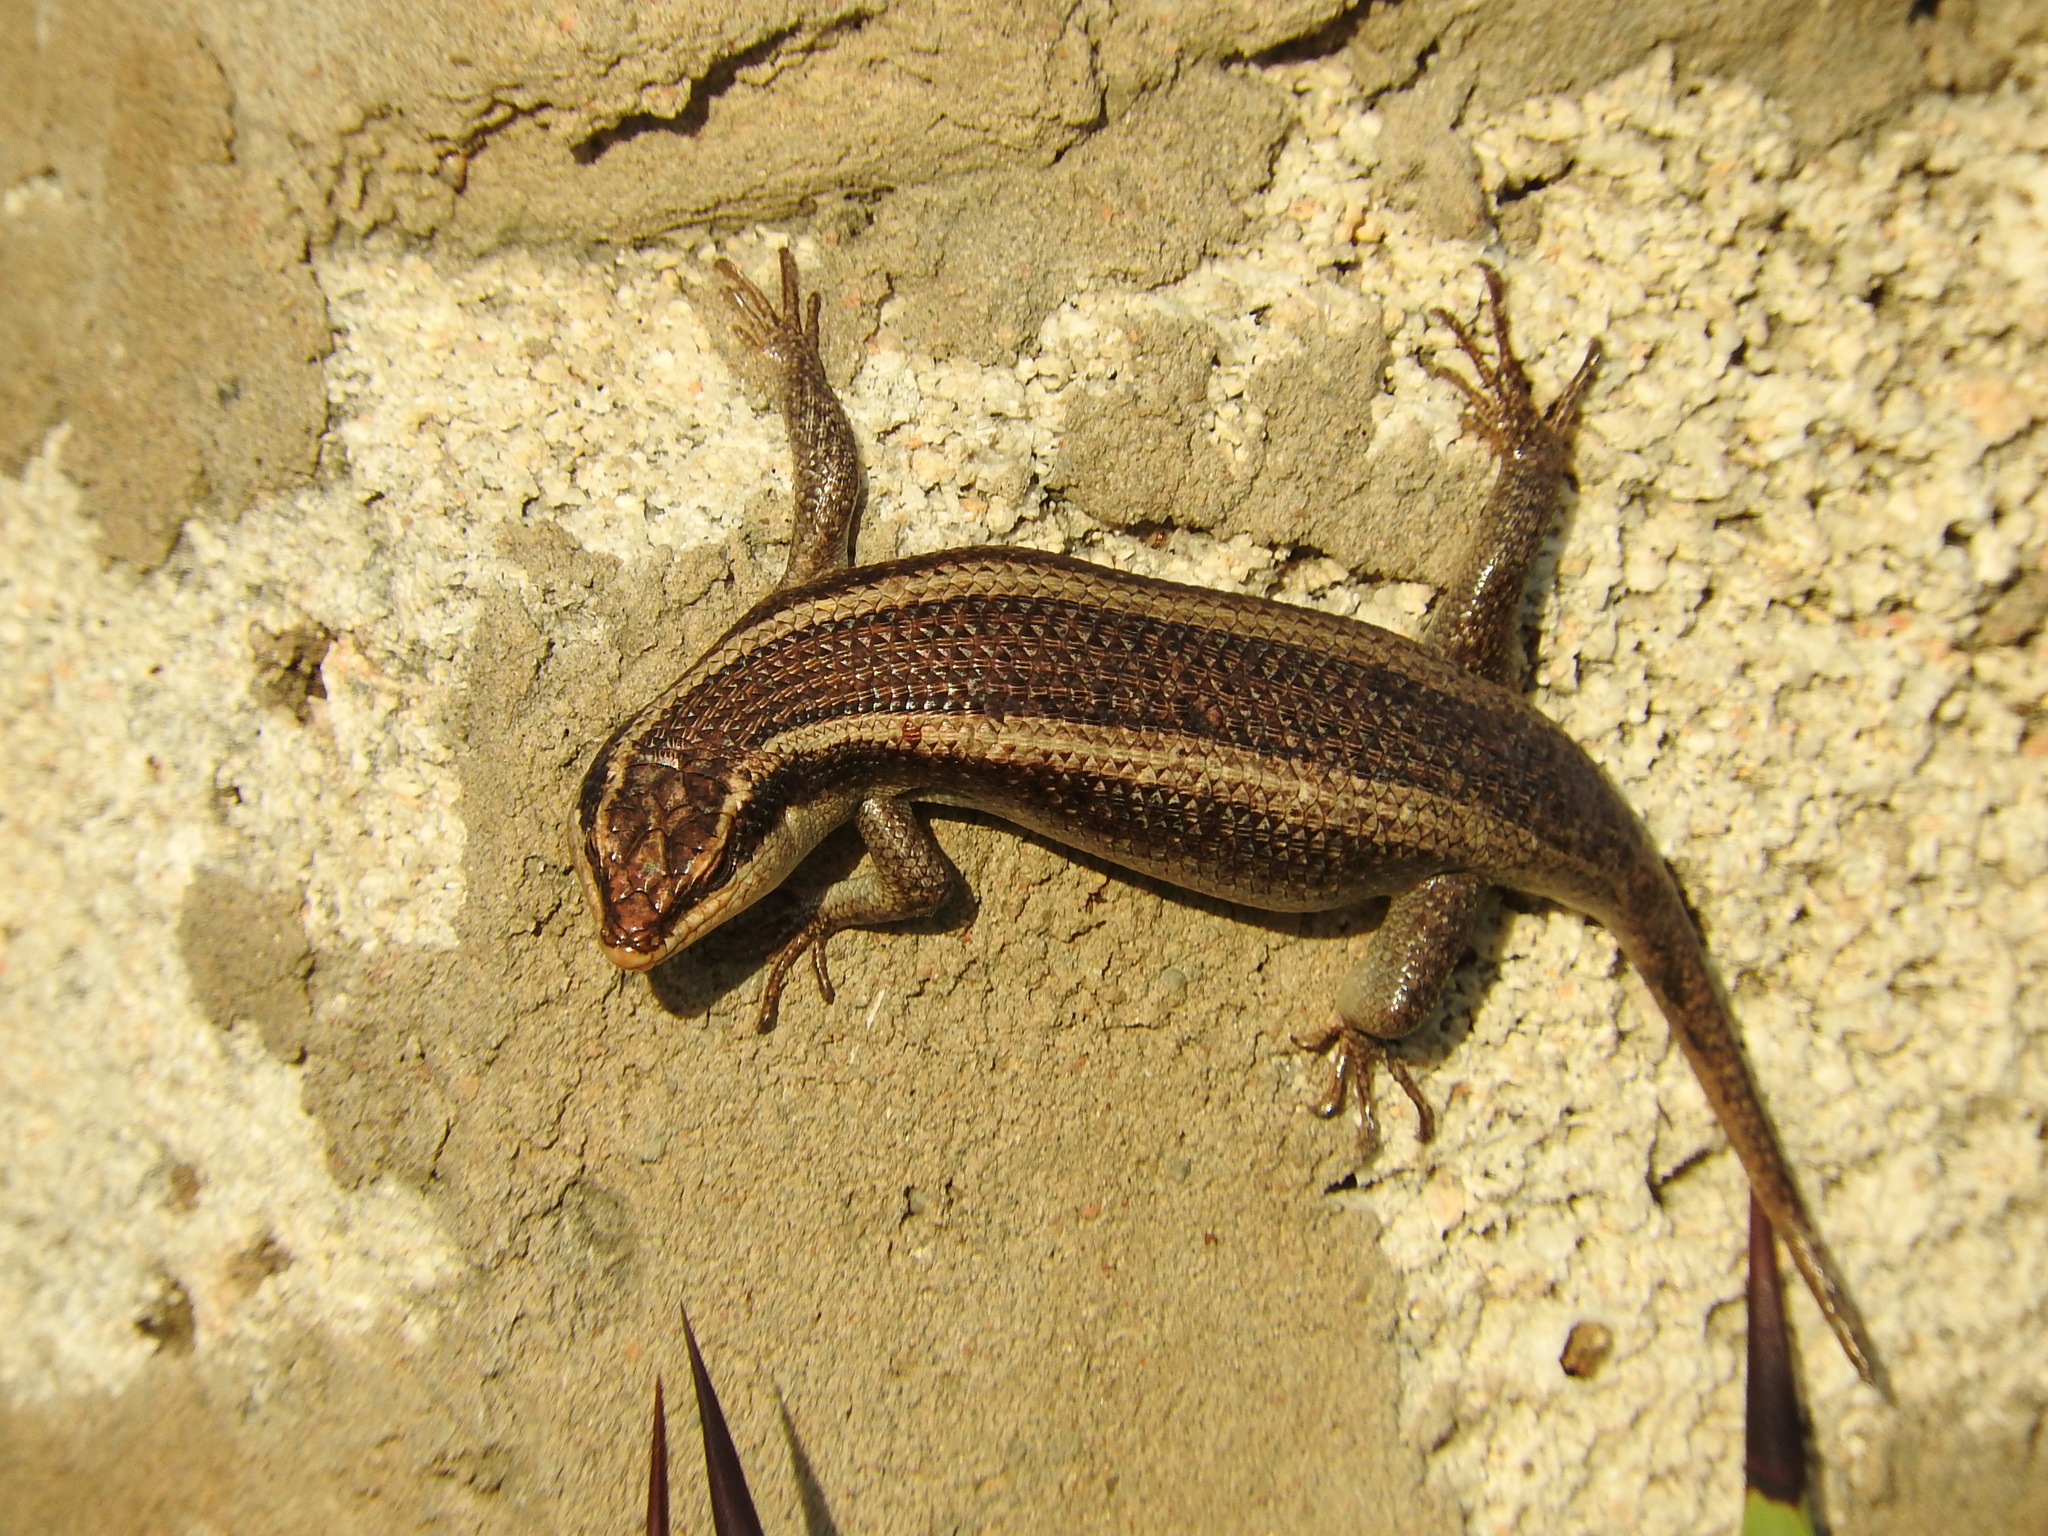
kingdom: Animalia
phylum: Chordata
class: Squamata
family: Scincidae
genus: Trachylepis
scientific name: Trachylepis striata
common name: African striped mabuya
